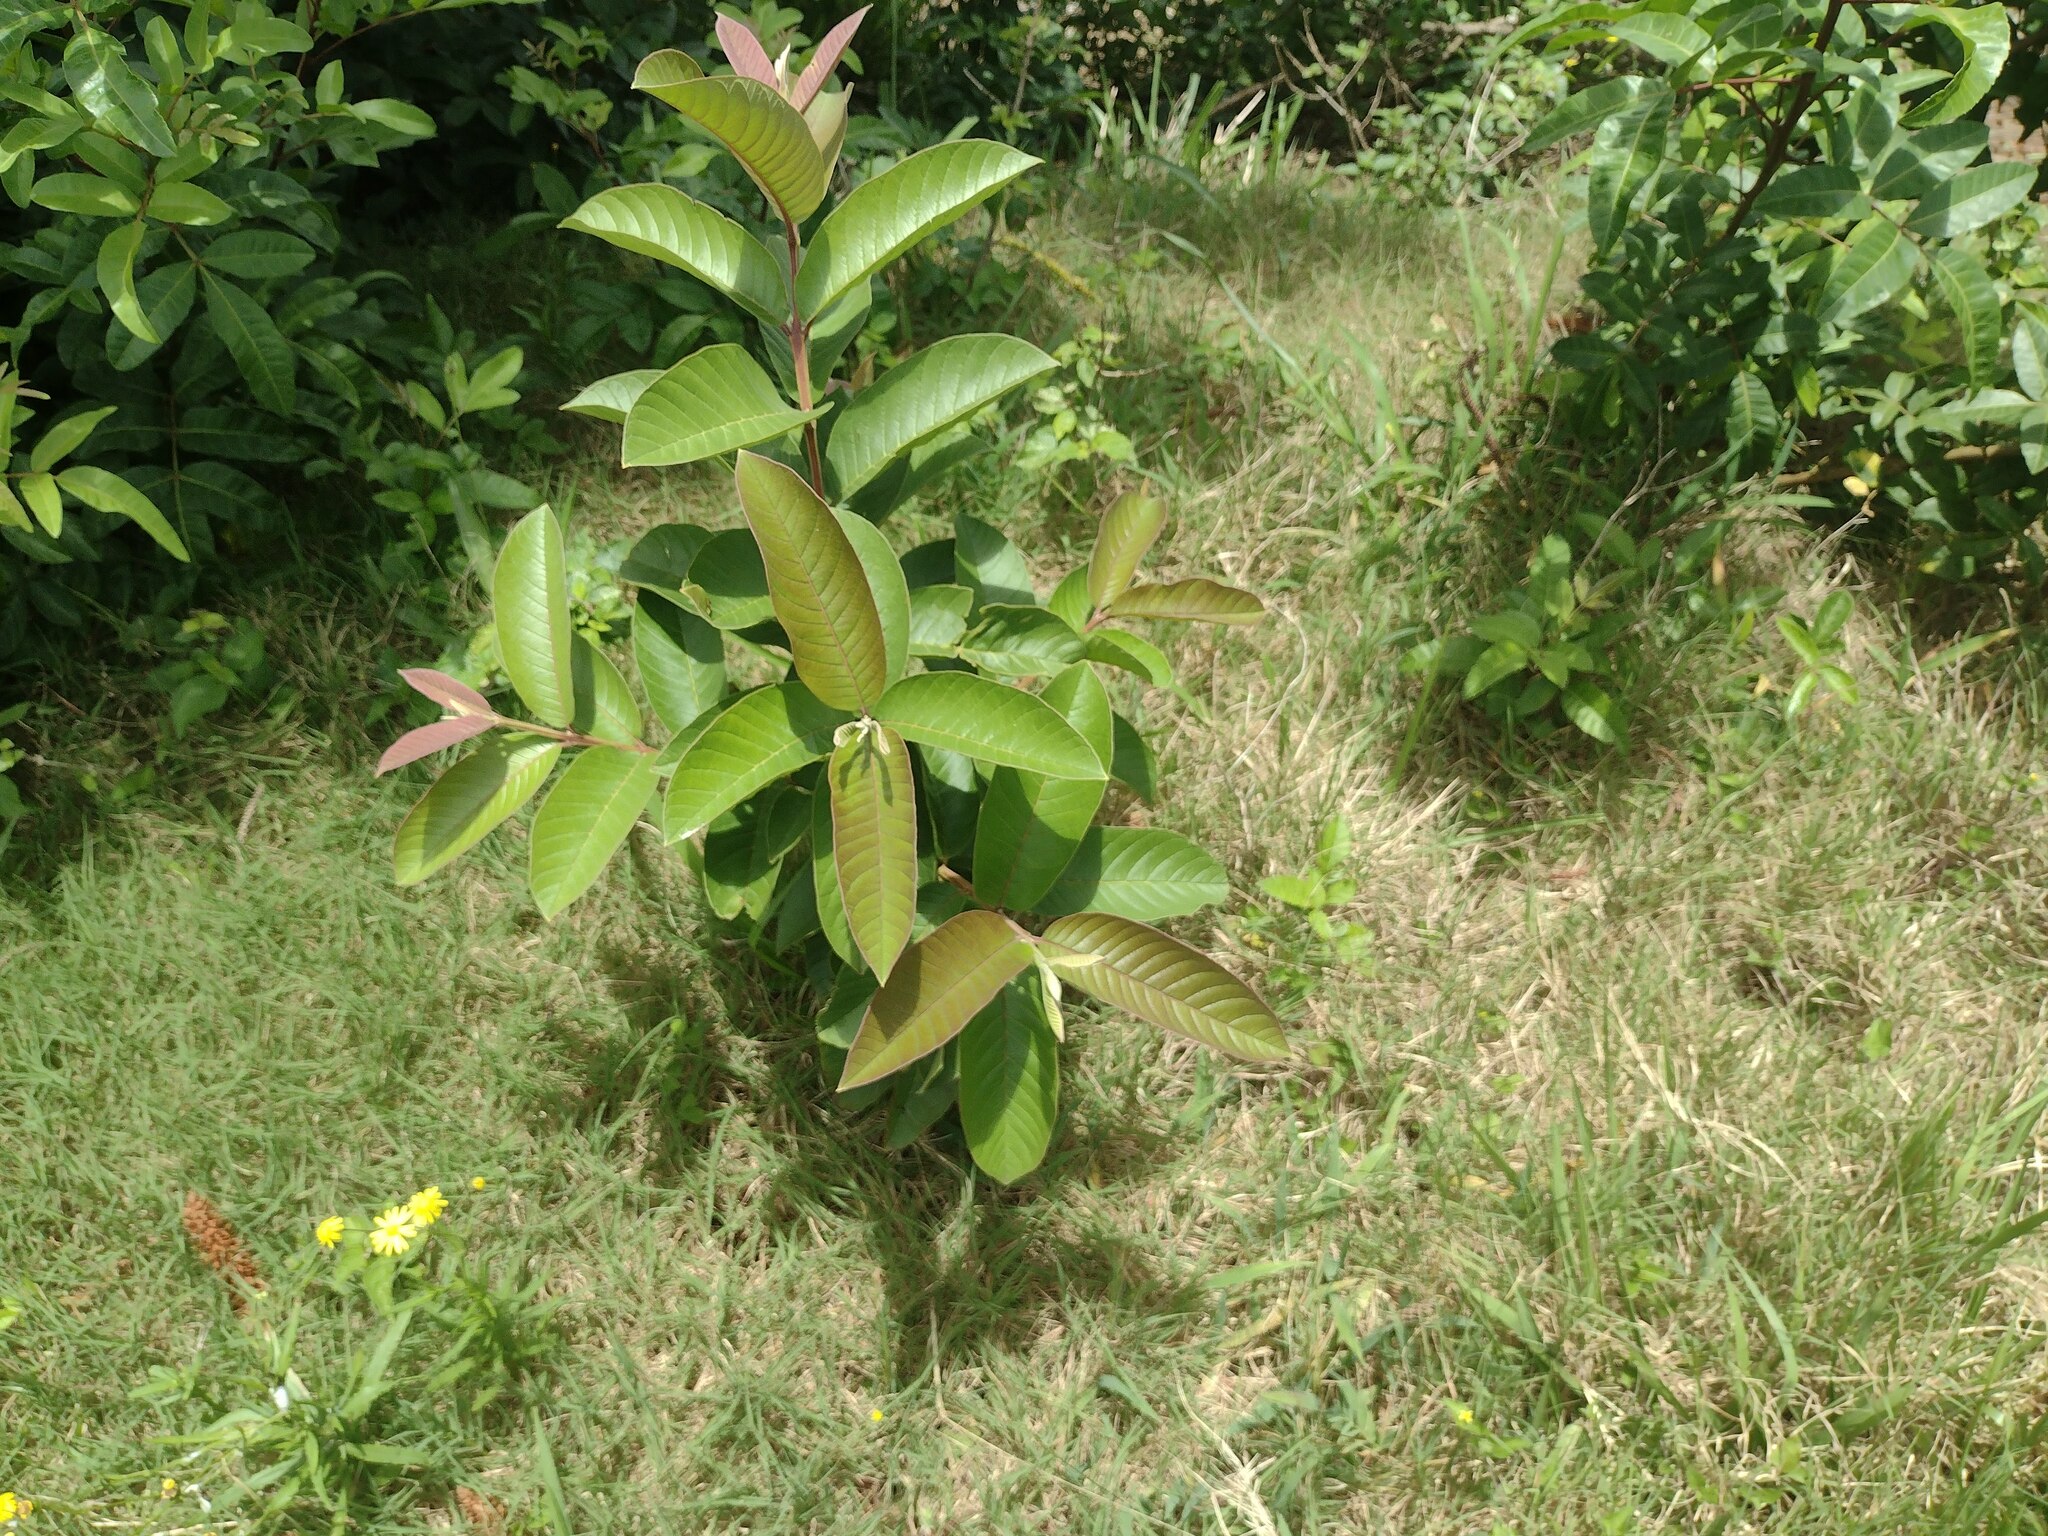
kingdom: Plantae
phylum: Tracheophyta
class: Magnoliopsida
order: Myrtales
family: Myrtaceae
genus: Psidium
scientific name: Psidium guajava
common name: Guava
